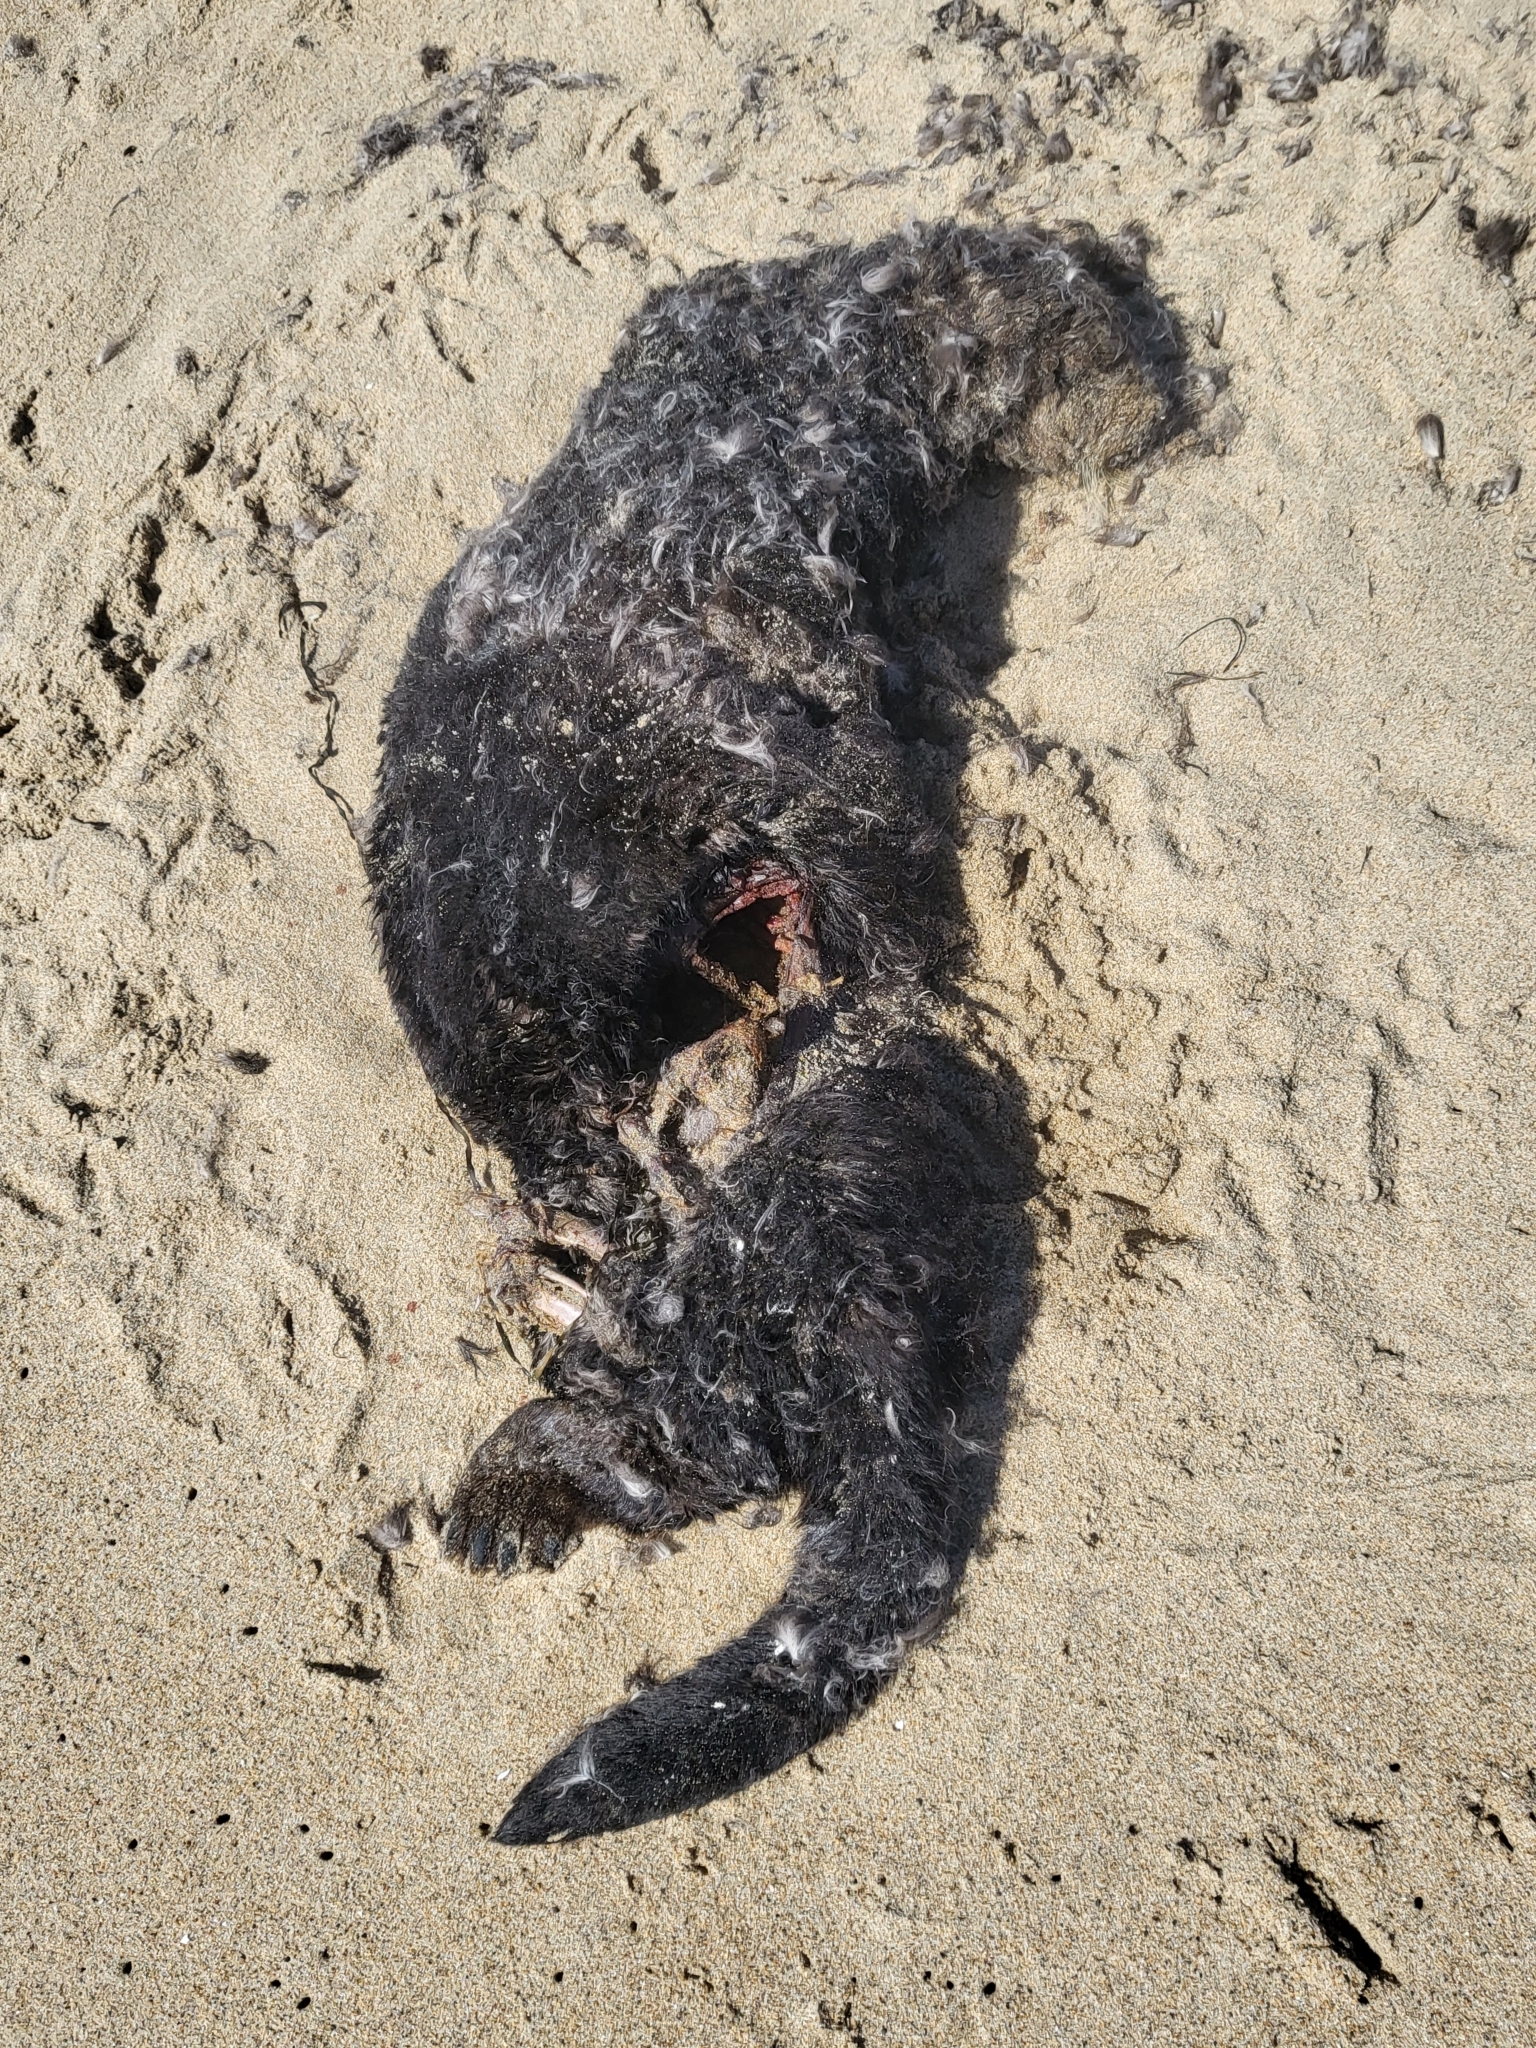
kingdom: Animalia
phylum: Chordata
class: Mammalia
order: Carnivora
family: Mustelidae
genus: Enhydra
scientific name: Enhydra lutris
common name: Sea otter
